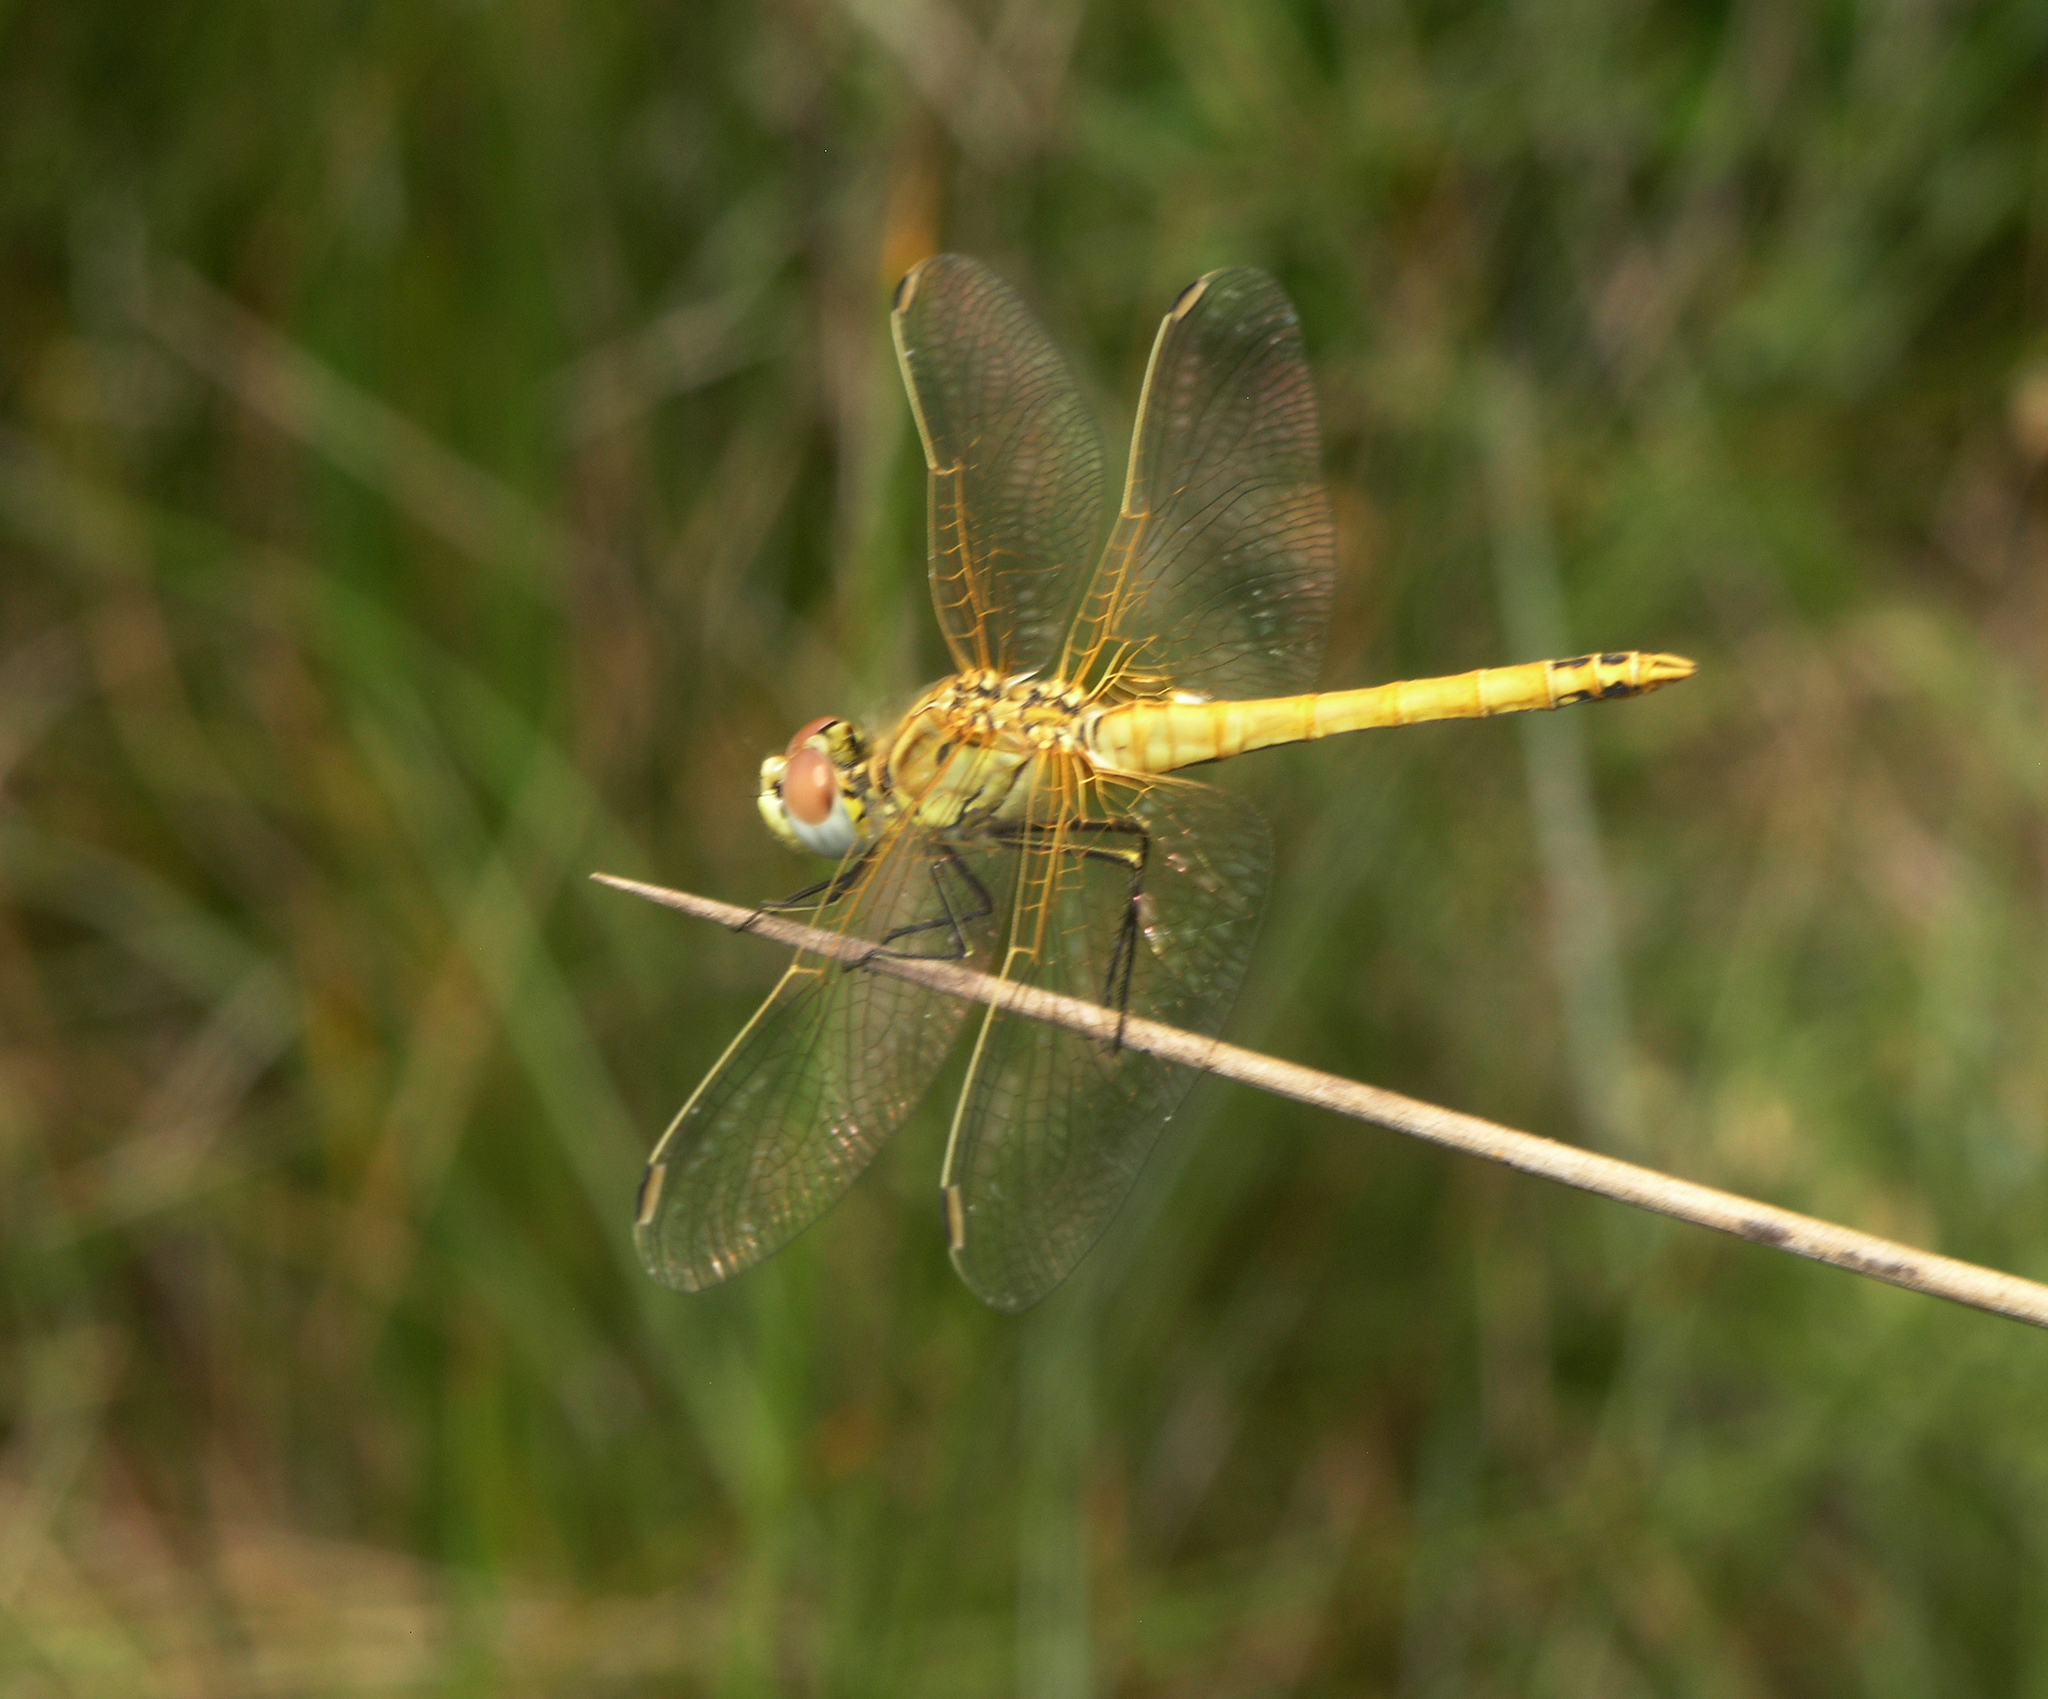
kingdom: Animalia
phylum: Arthropoda
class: Insecta
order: Odonata
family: Libellulidae
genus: Sympetrum
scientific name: Sympetrum fonscolombii
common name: Red-veined darter
